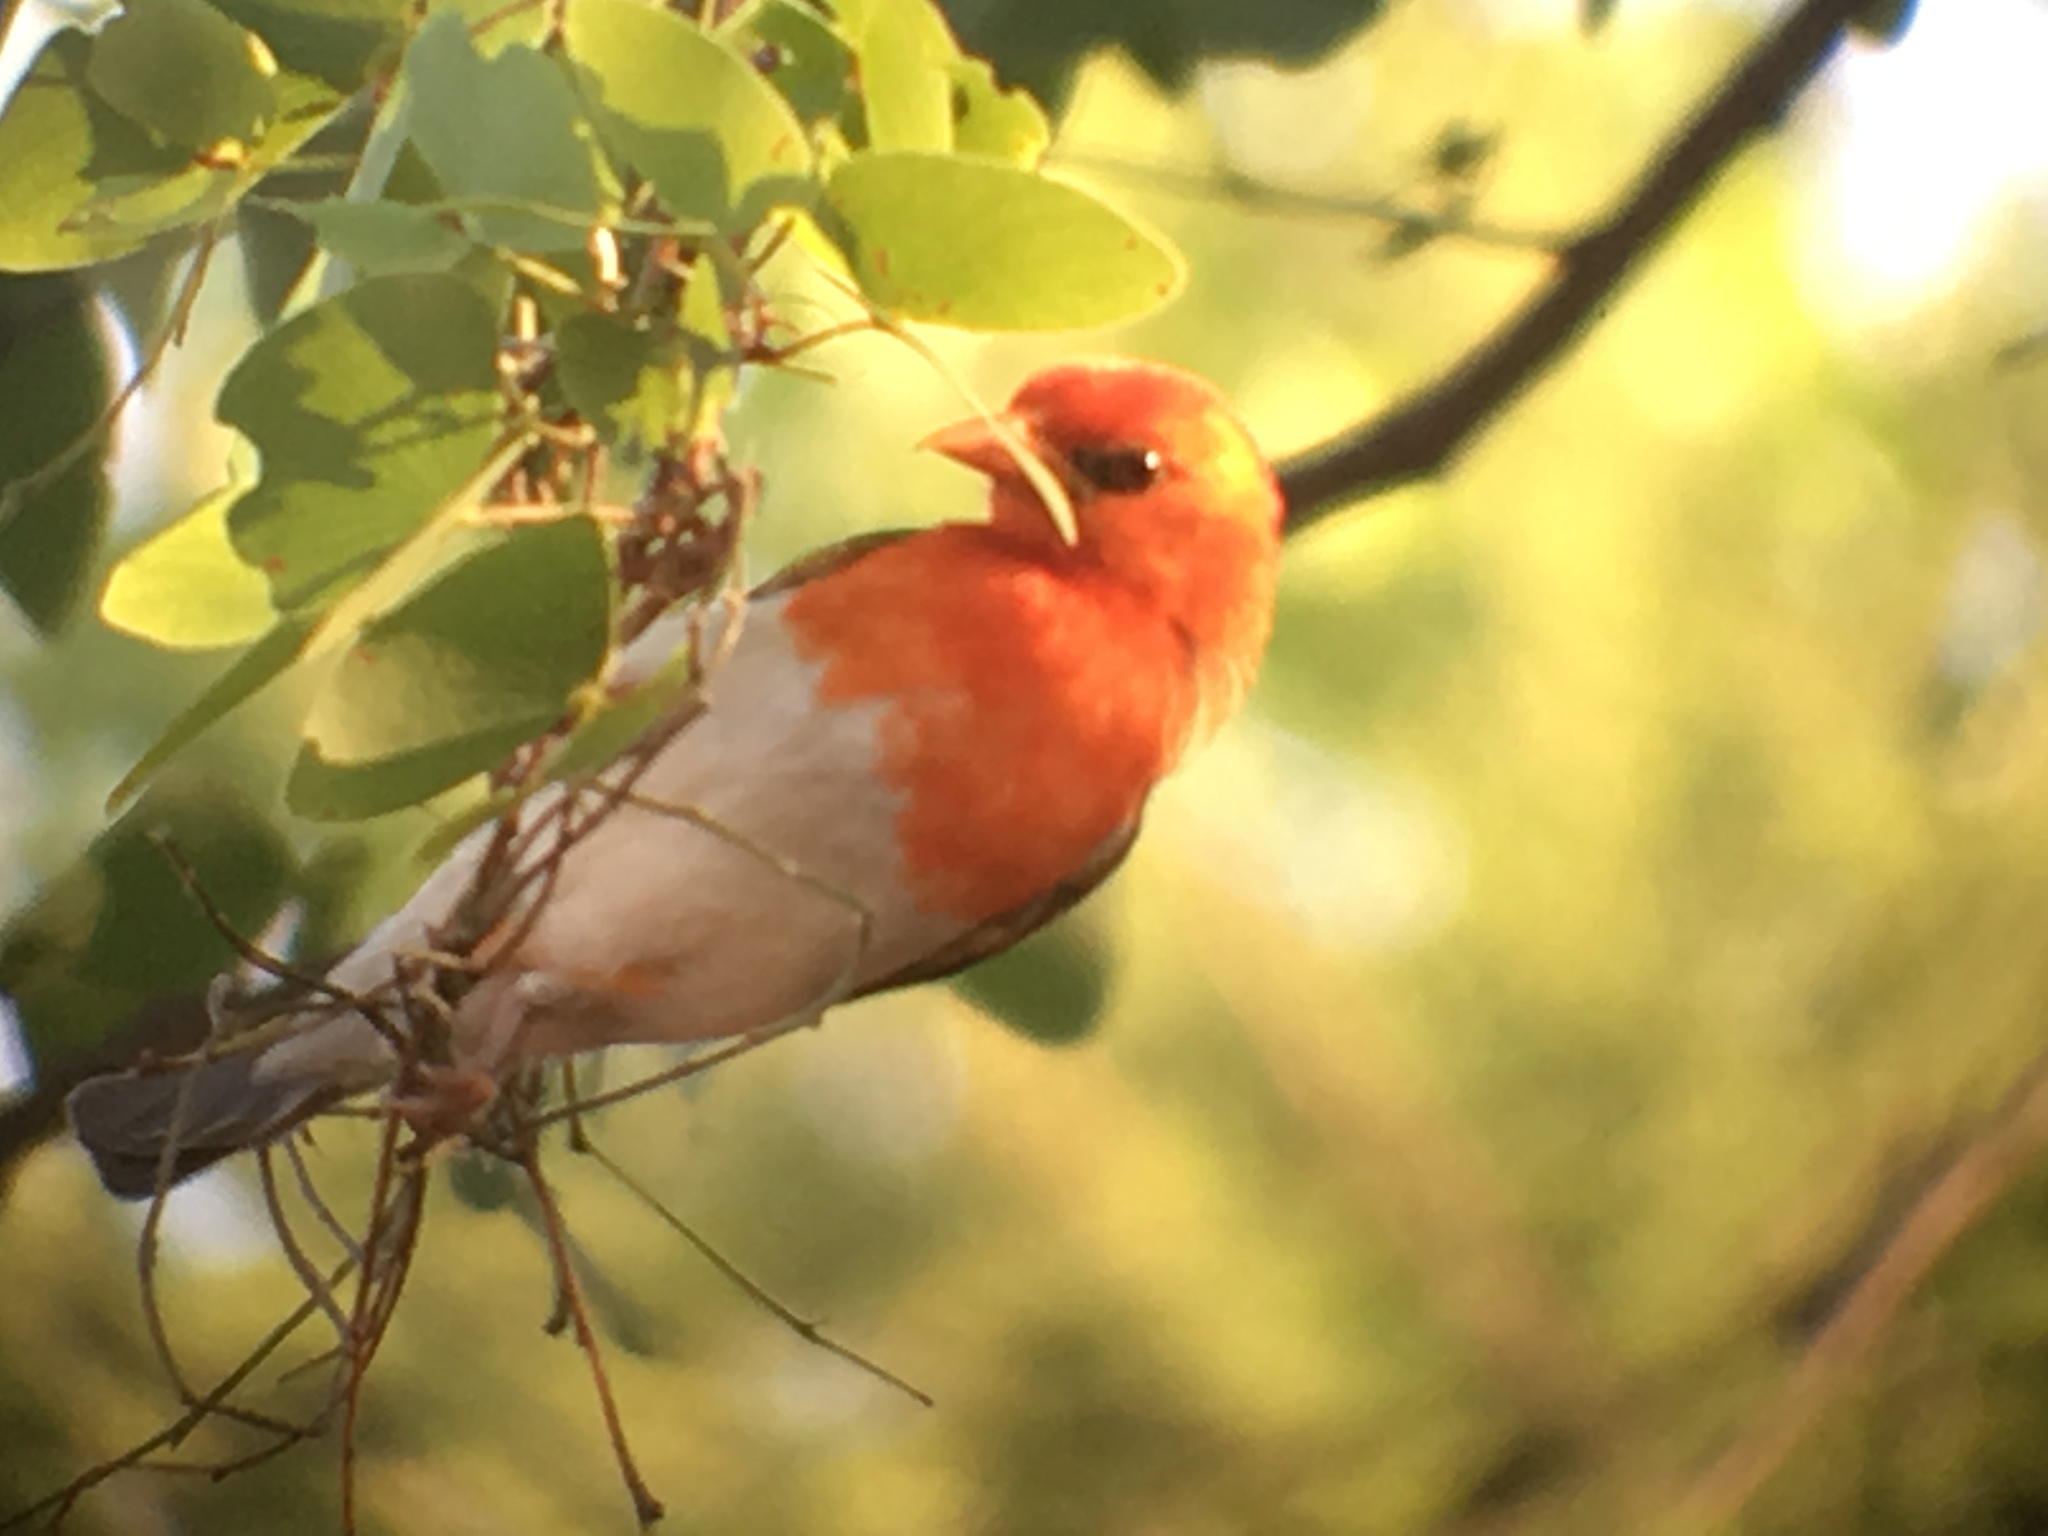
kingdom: Animalia
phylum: Chordata
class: Aves
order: Passeriformes
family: Ploceidae
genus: Anaplectes
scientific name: Anaplectes rubriceps
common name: Red-headed weaver
